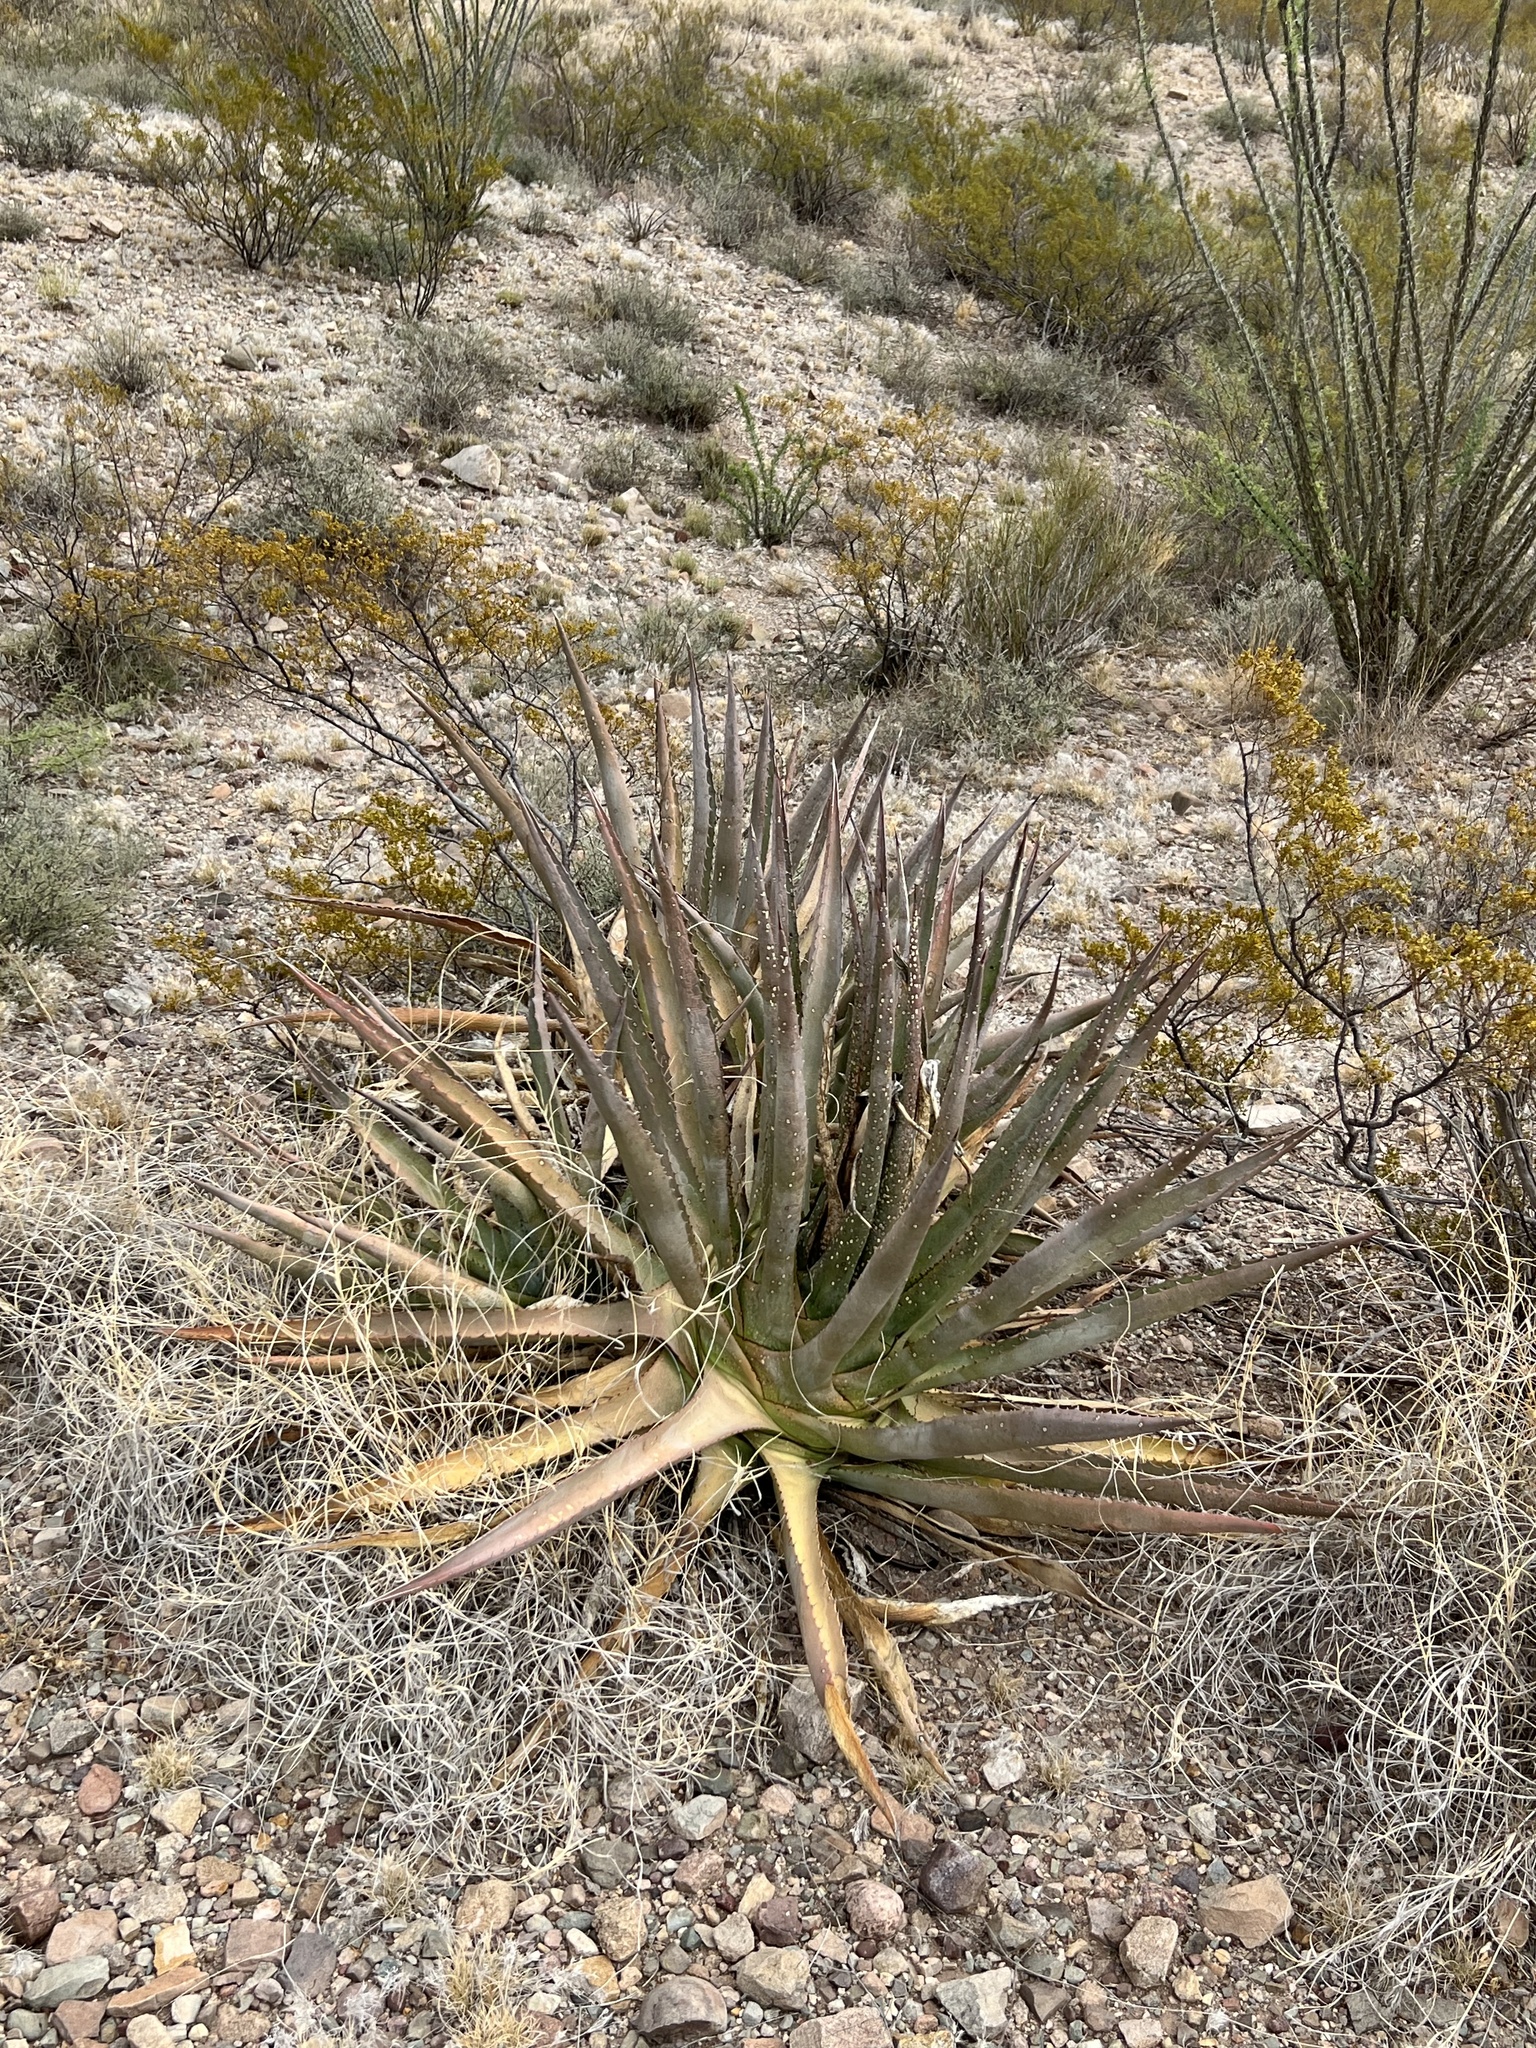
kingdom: Plantae
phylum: Tracheophyta
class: Liliopsida
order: Asparagales
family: Asparagaceae
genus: Agave
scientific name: Agave palmeri
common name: Palmer agave
